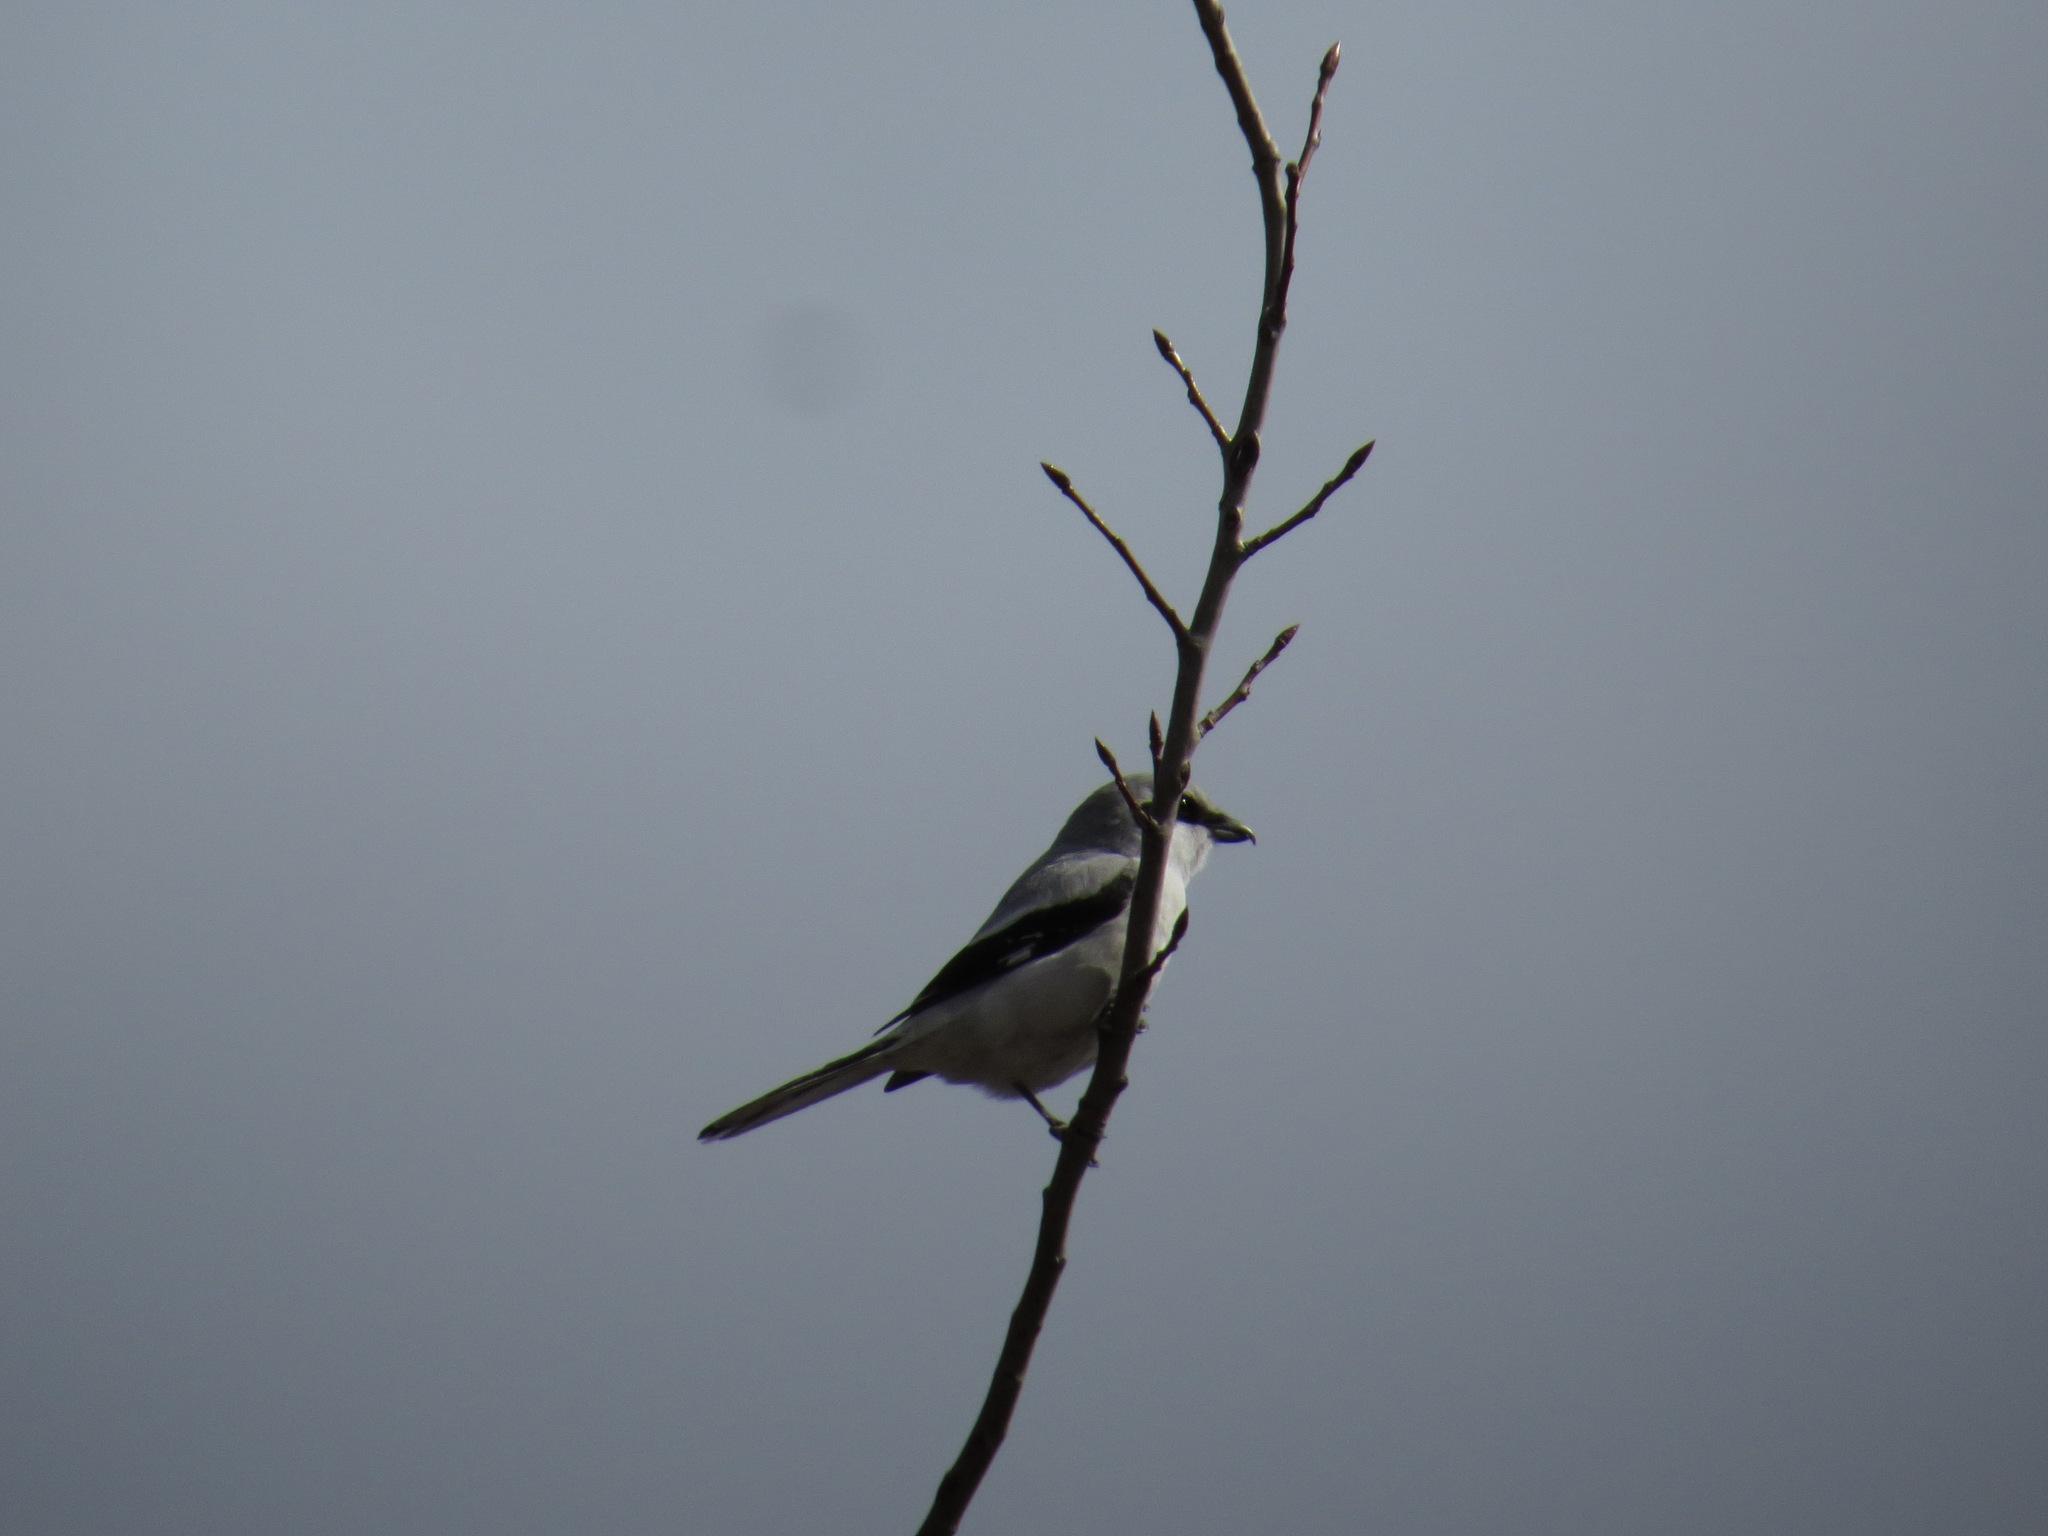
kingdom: Animalia
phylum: Chordata
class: Aves
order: Passeriformes
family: Laniidae
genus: Lanius
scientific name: Lanius excubitor
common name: Great grey shrike
